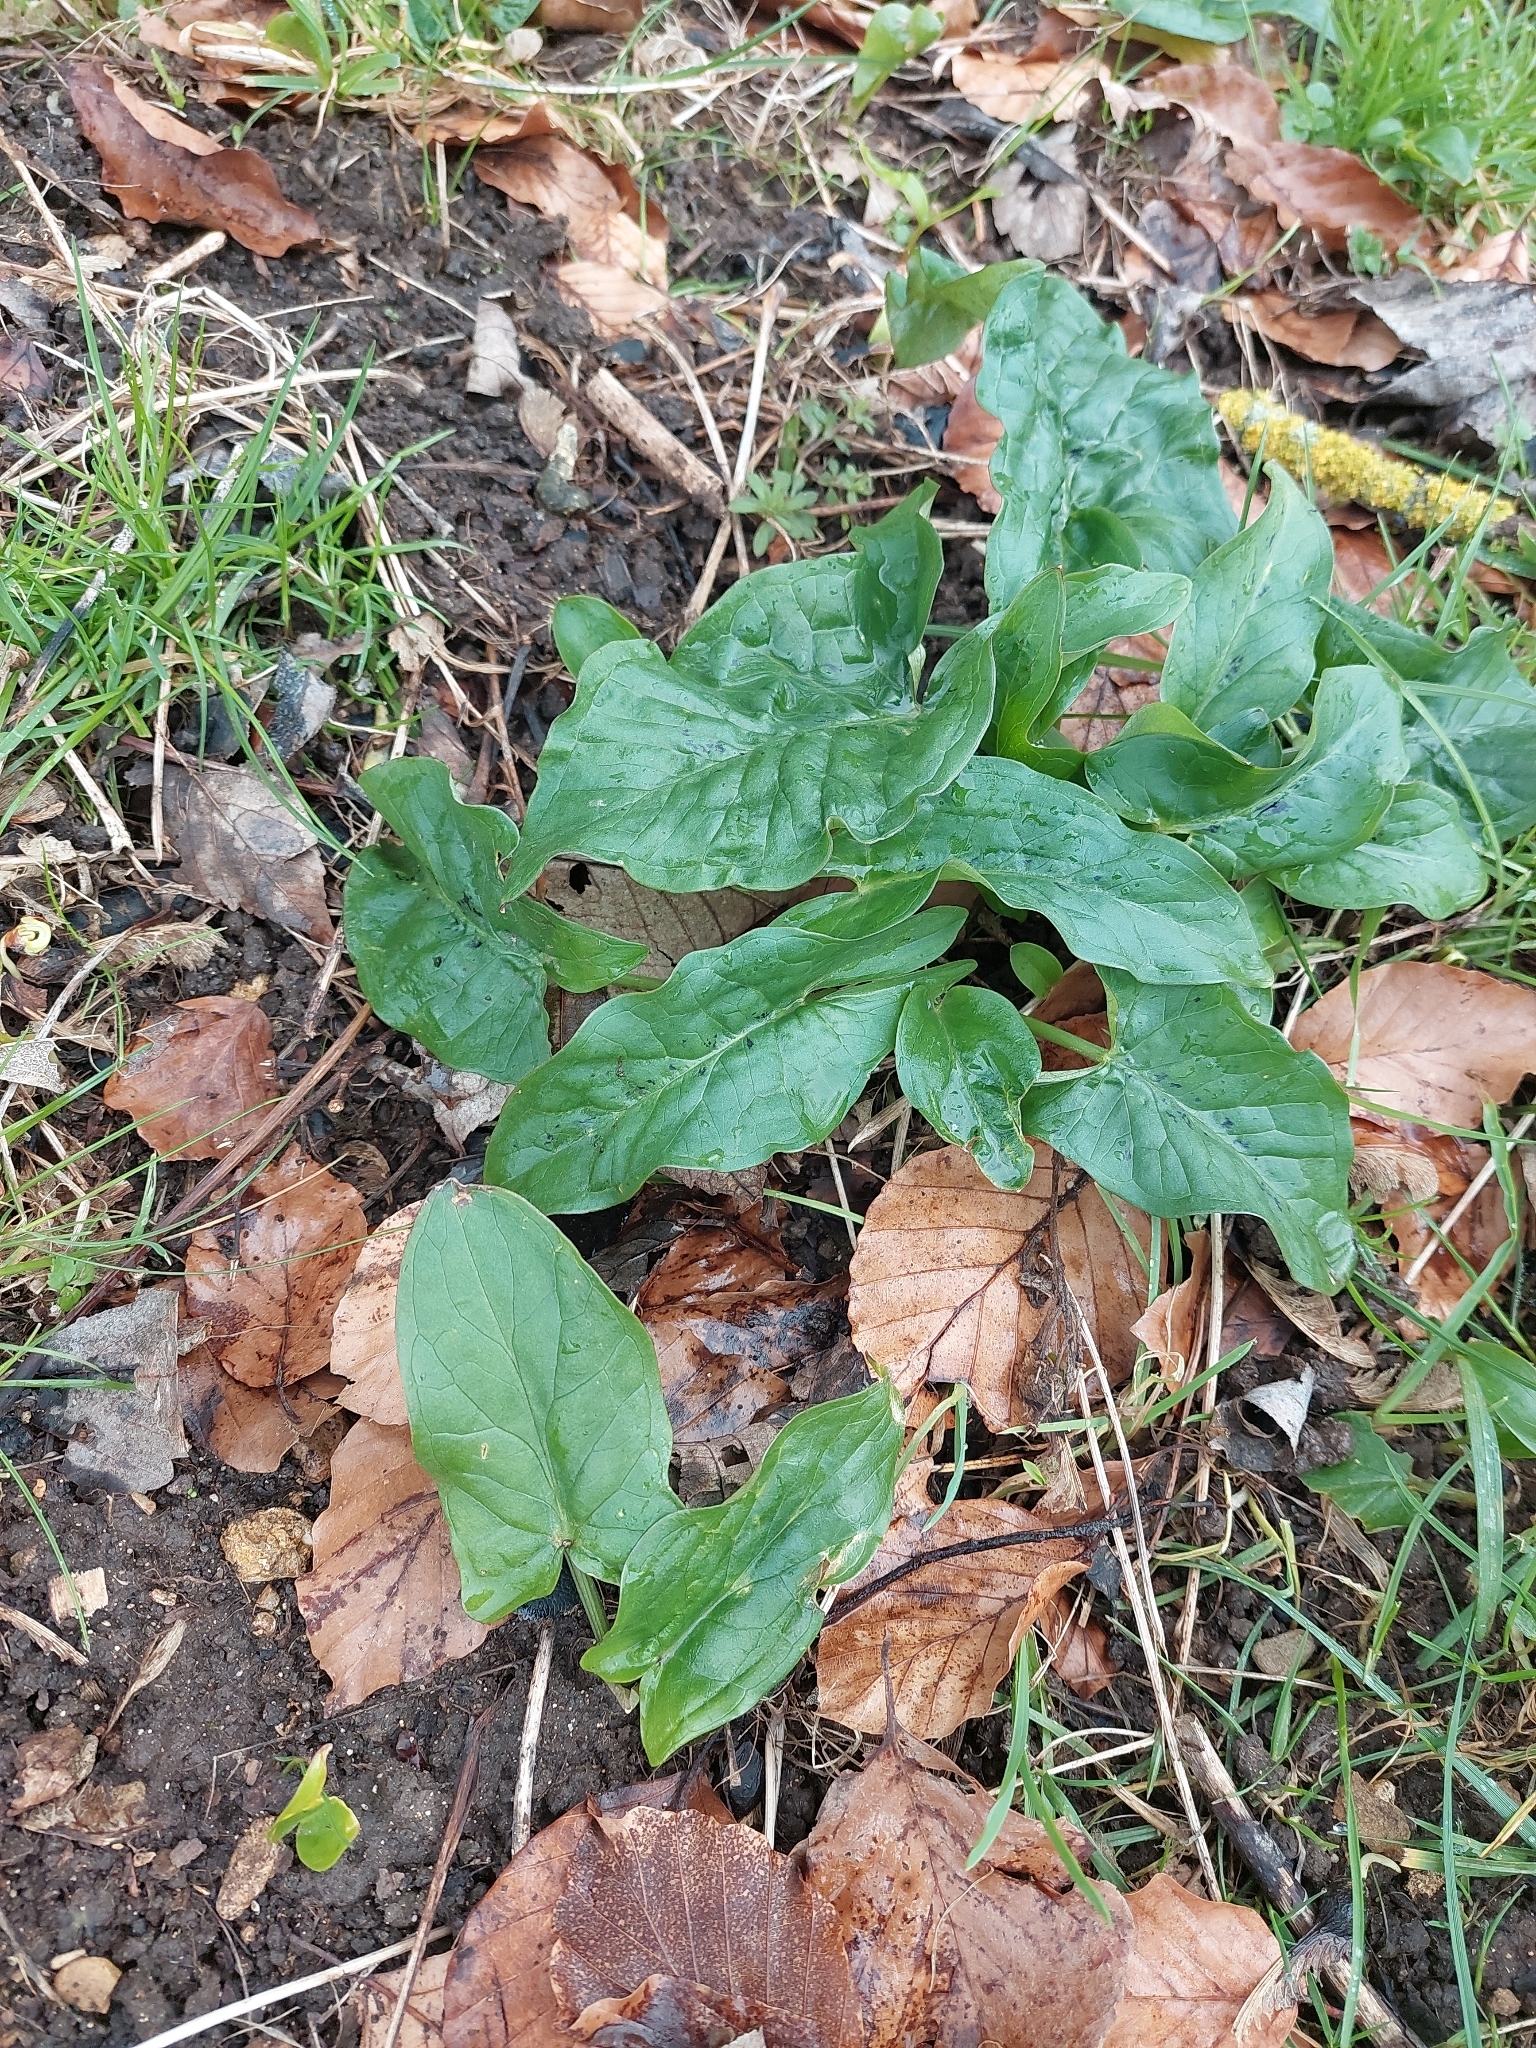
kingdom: Plantae
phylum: Tracheophyta
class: Liliopsida
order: Alismatales
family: Araceae
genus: Arum
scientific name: Arum maculatum
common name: Lords-and-ladies
